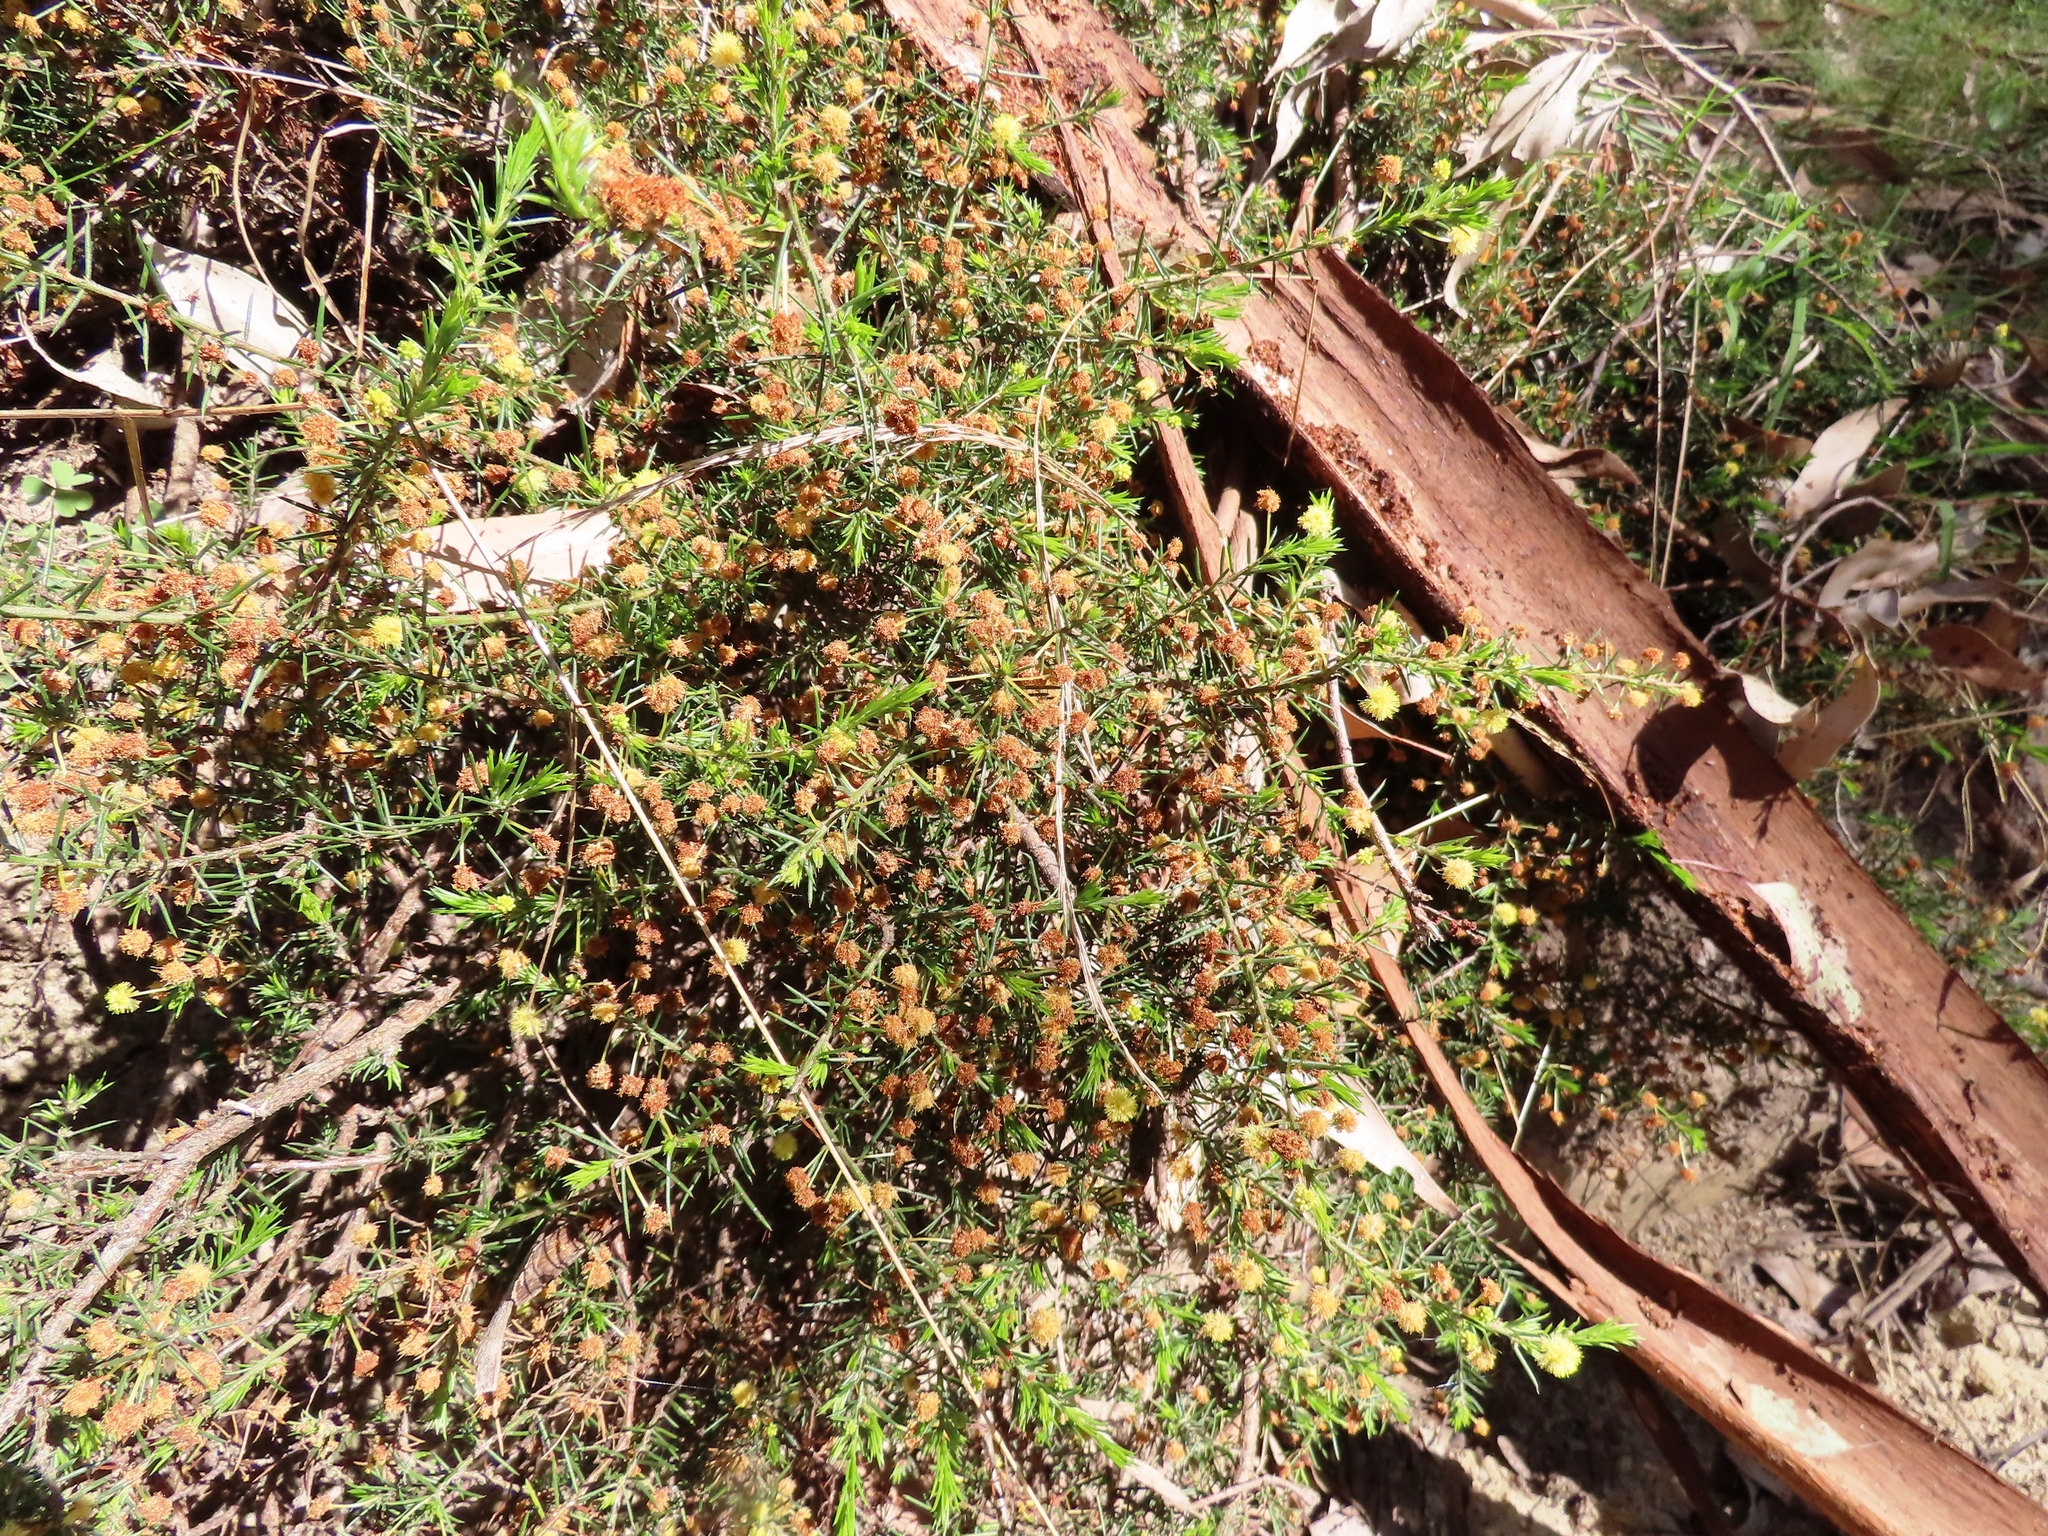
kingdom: Plantae
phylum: Tracheophyta
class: Magnoliopsida
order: Fabales
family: Fabaceae
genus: Acacia
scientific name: Acacia aculeatissima
